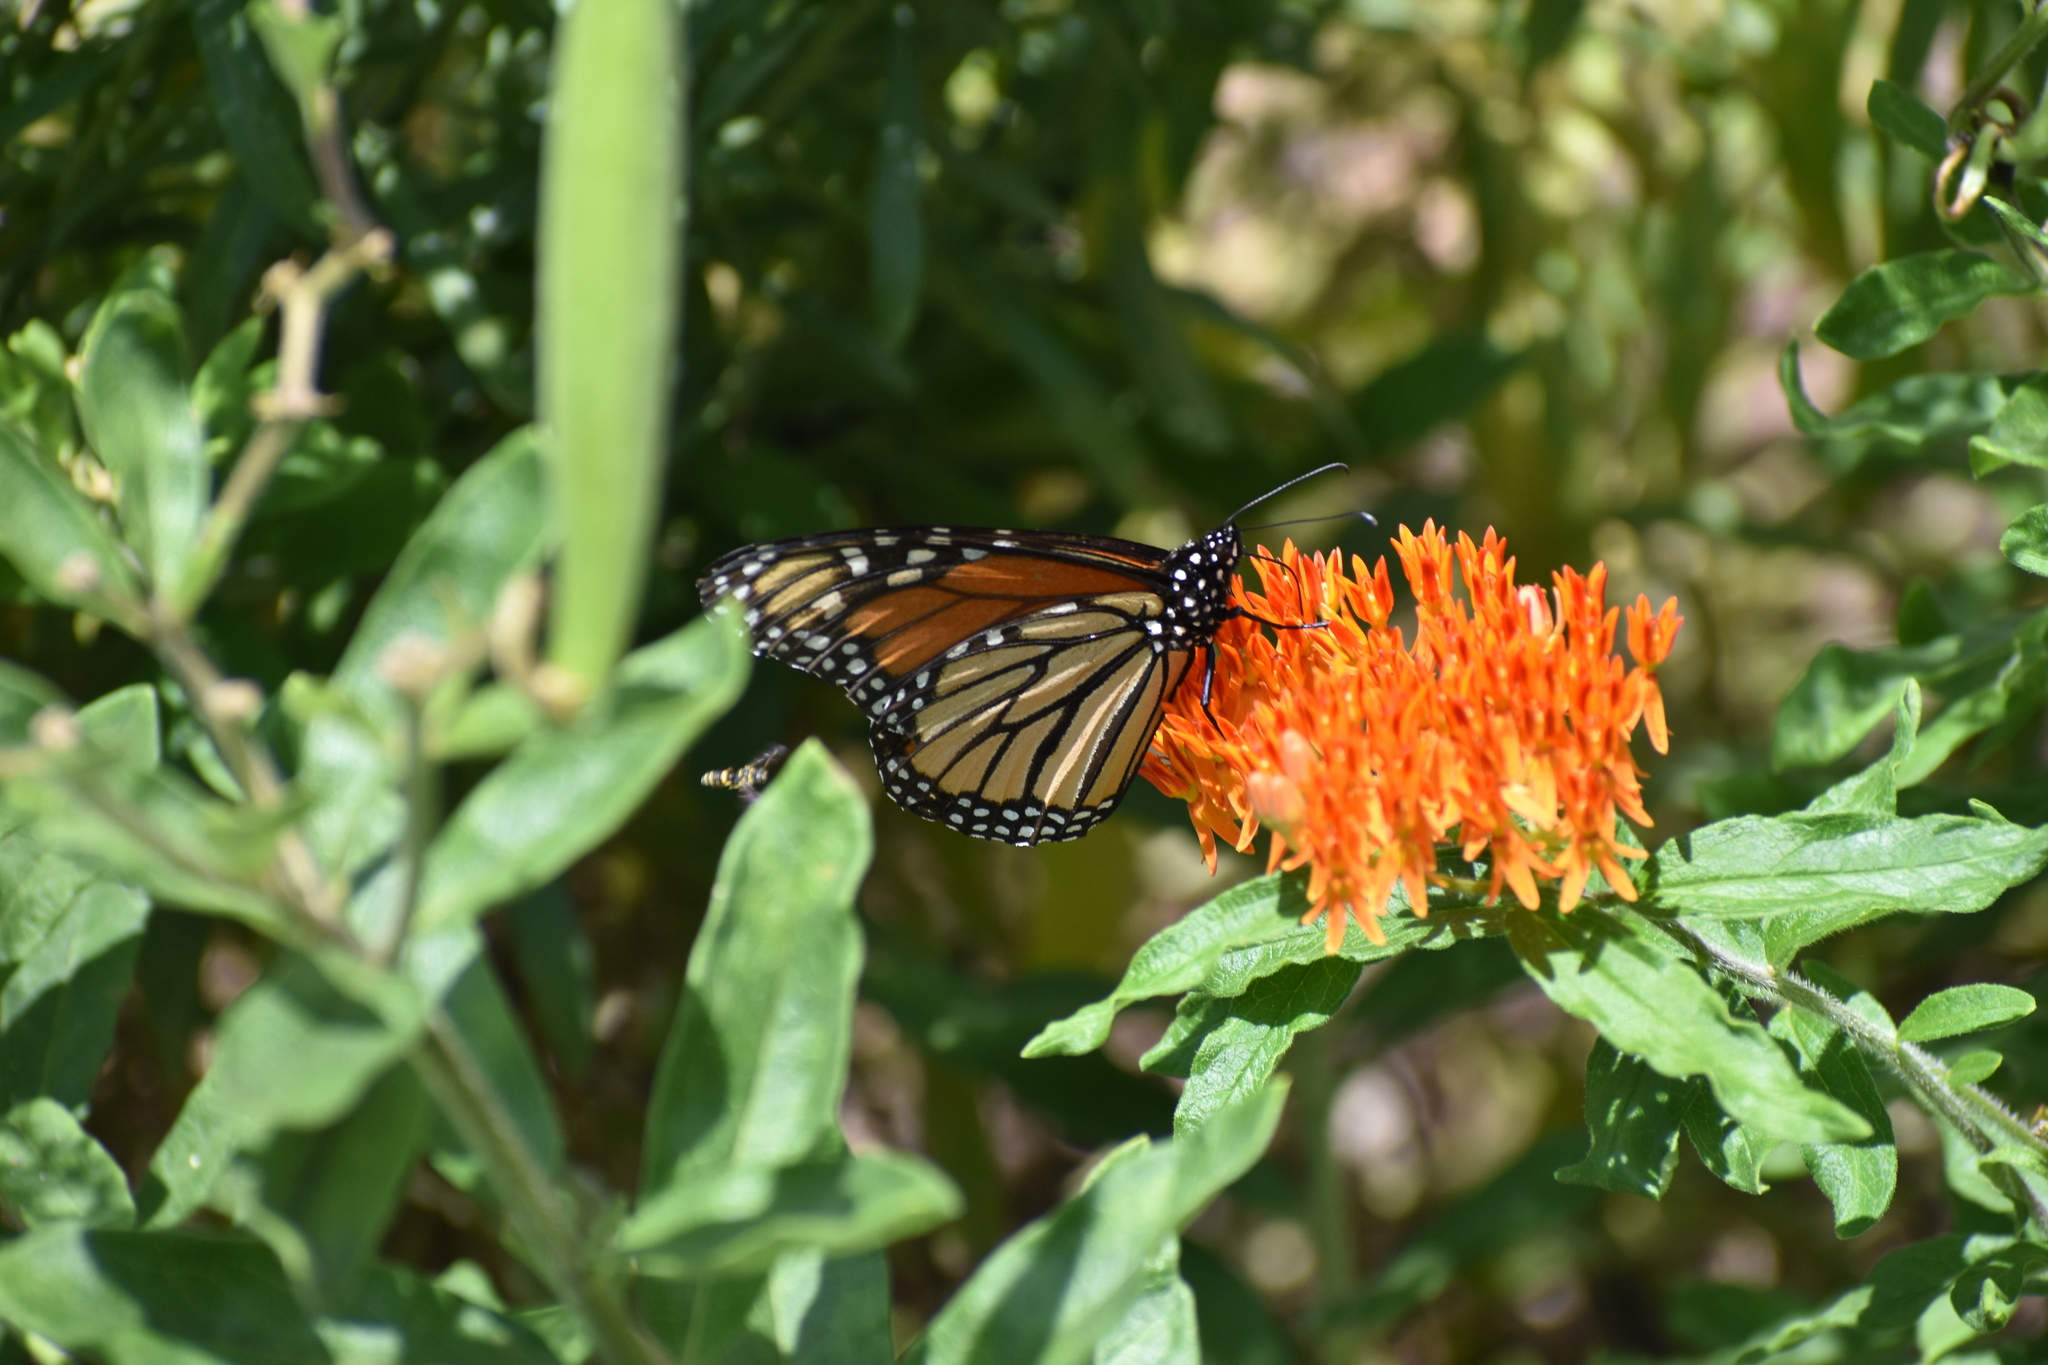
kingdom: Animalia
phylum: Arthropoda
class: Insecta
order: Lepidoptera
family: Nymphalidae
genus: Danaus
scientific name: Danaus plexippus
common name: Monarch
